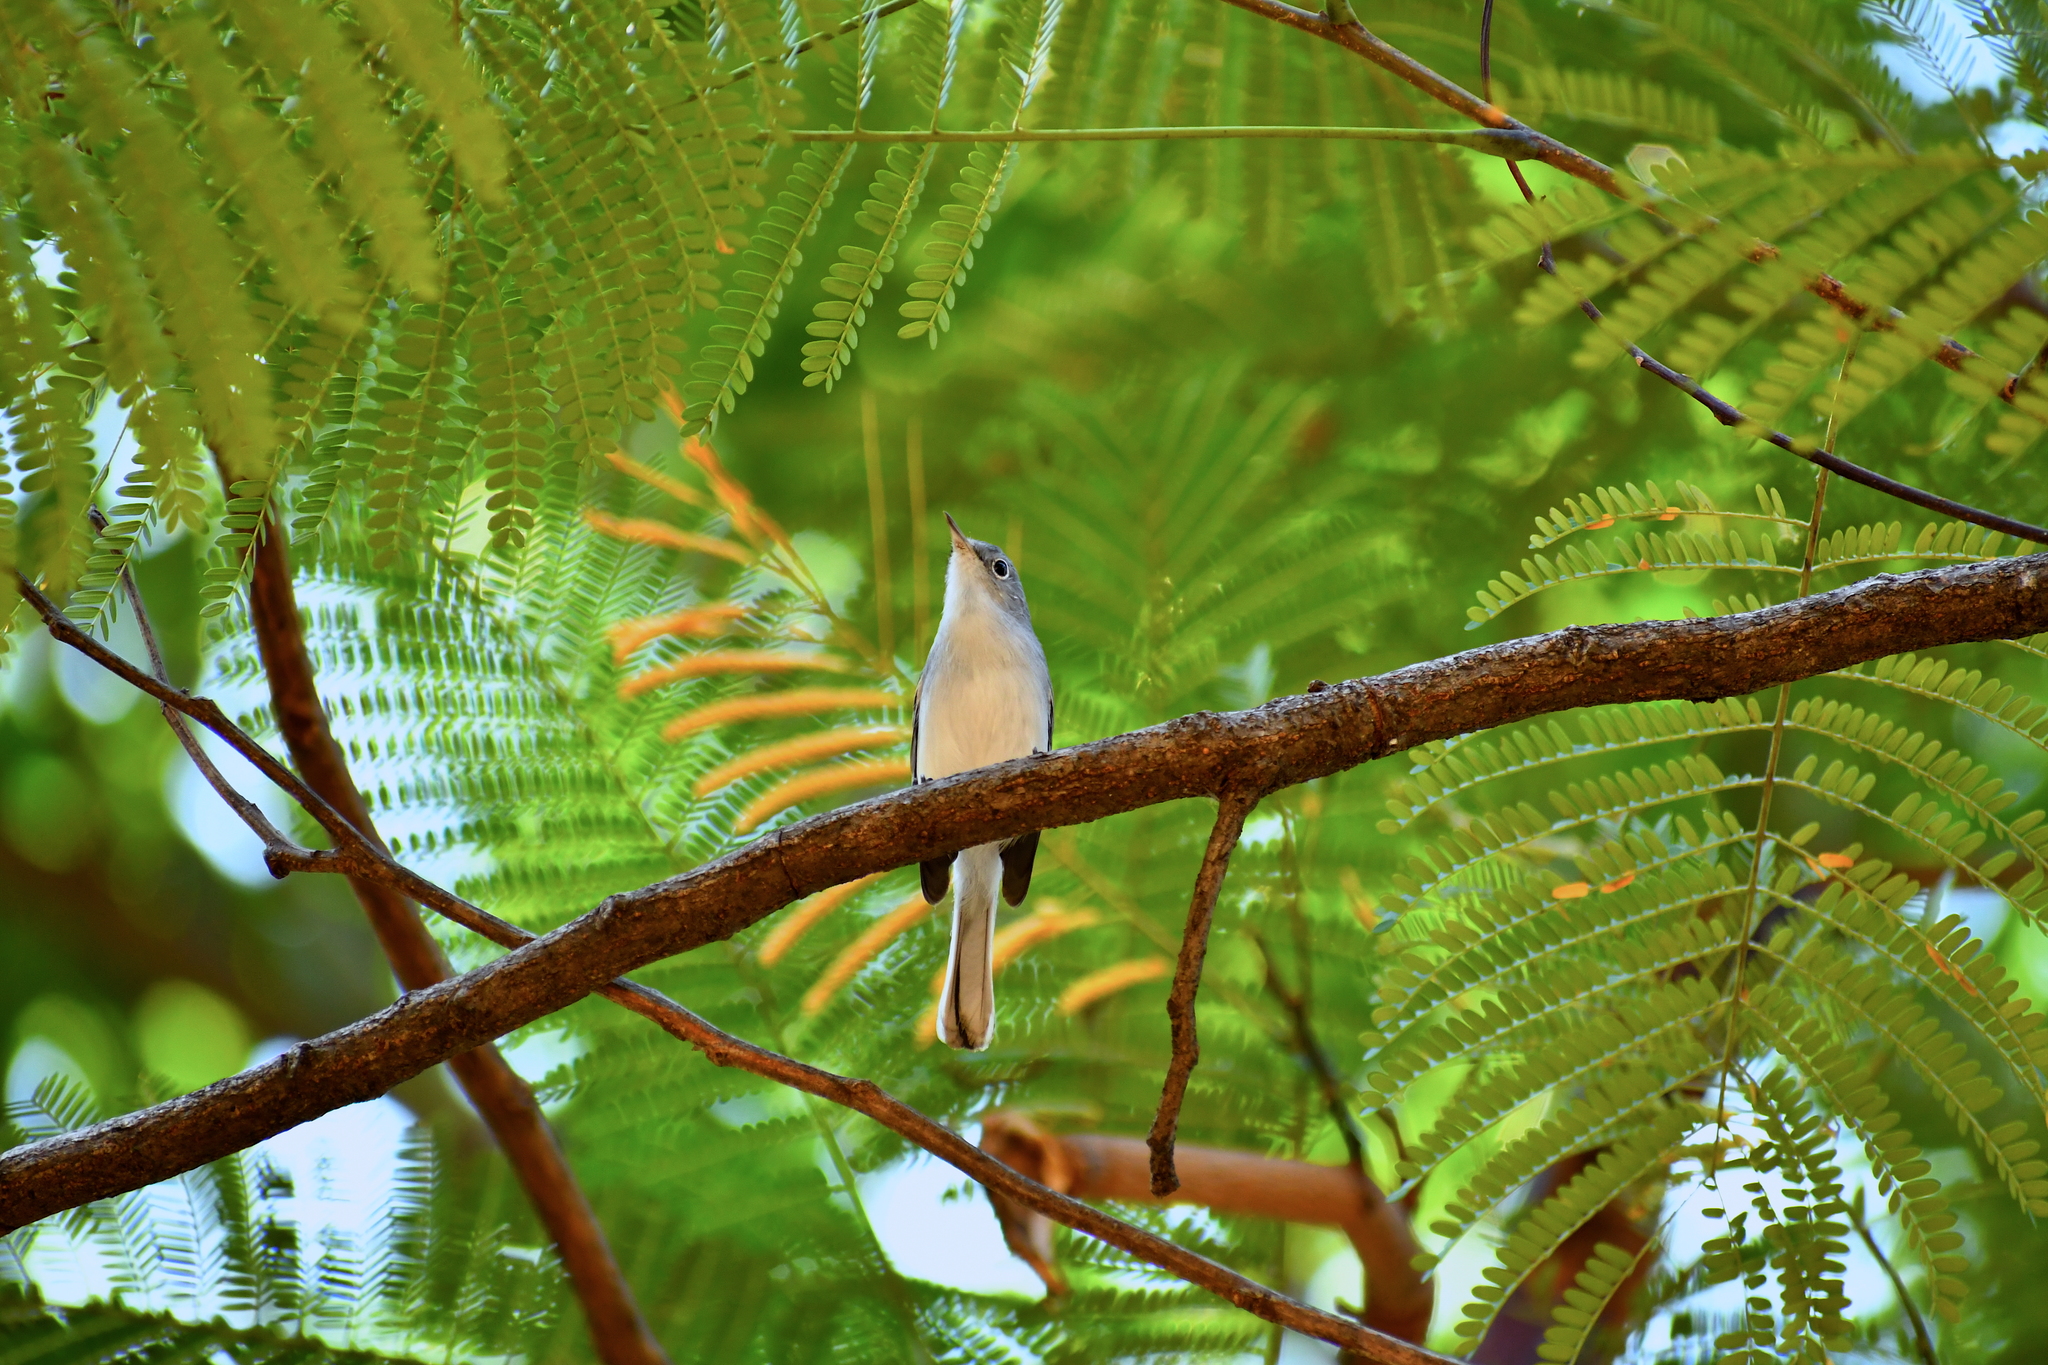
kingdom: Animalia
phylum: Chordata
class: Aves
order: Passeriformes
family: Polioptilidae
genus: Polioptila
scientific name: Polioptila caerulea
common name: Blue-gray gnatcatcher
